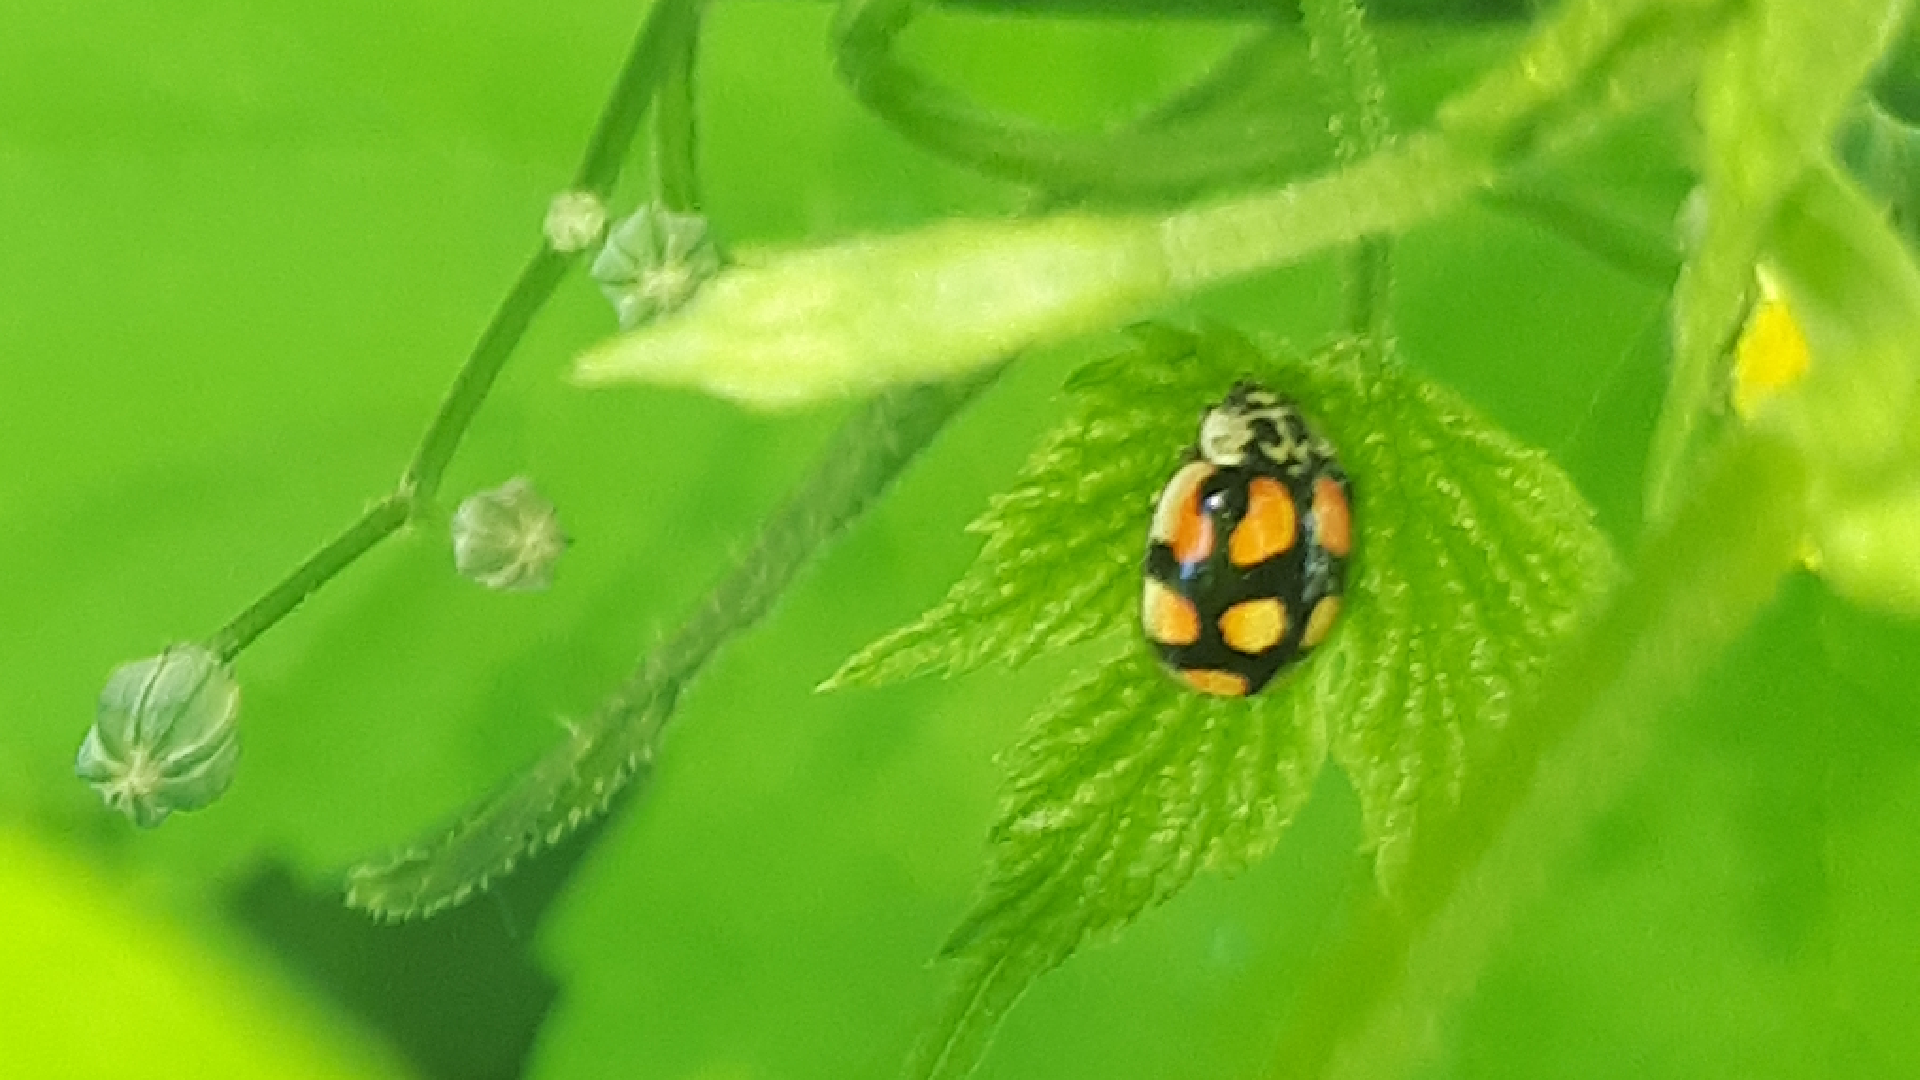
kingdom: Animalia
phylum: Arthropoda
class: Insecta
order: Coleoptera
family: Coccinellidae
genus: Adalia
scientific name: Adalia decempunctata
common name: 10-spot ladybird
